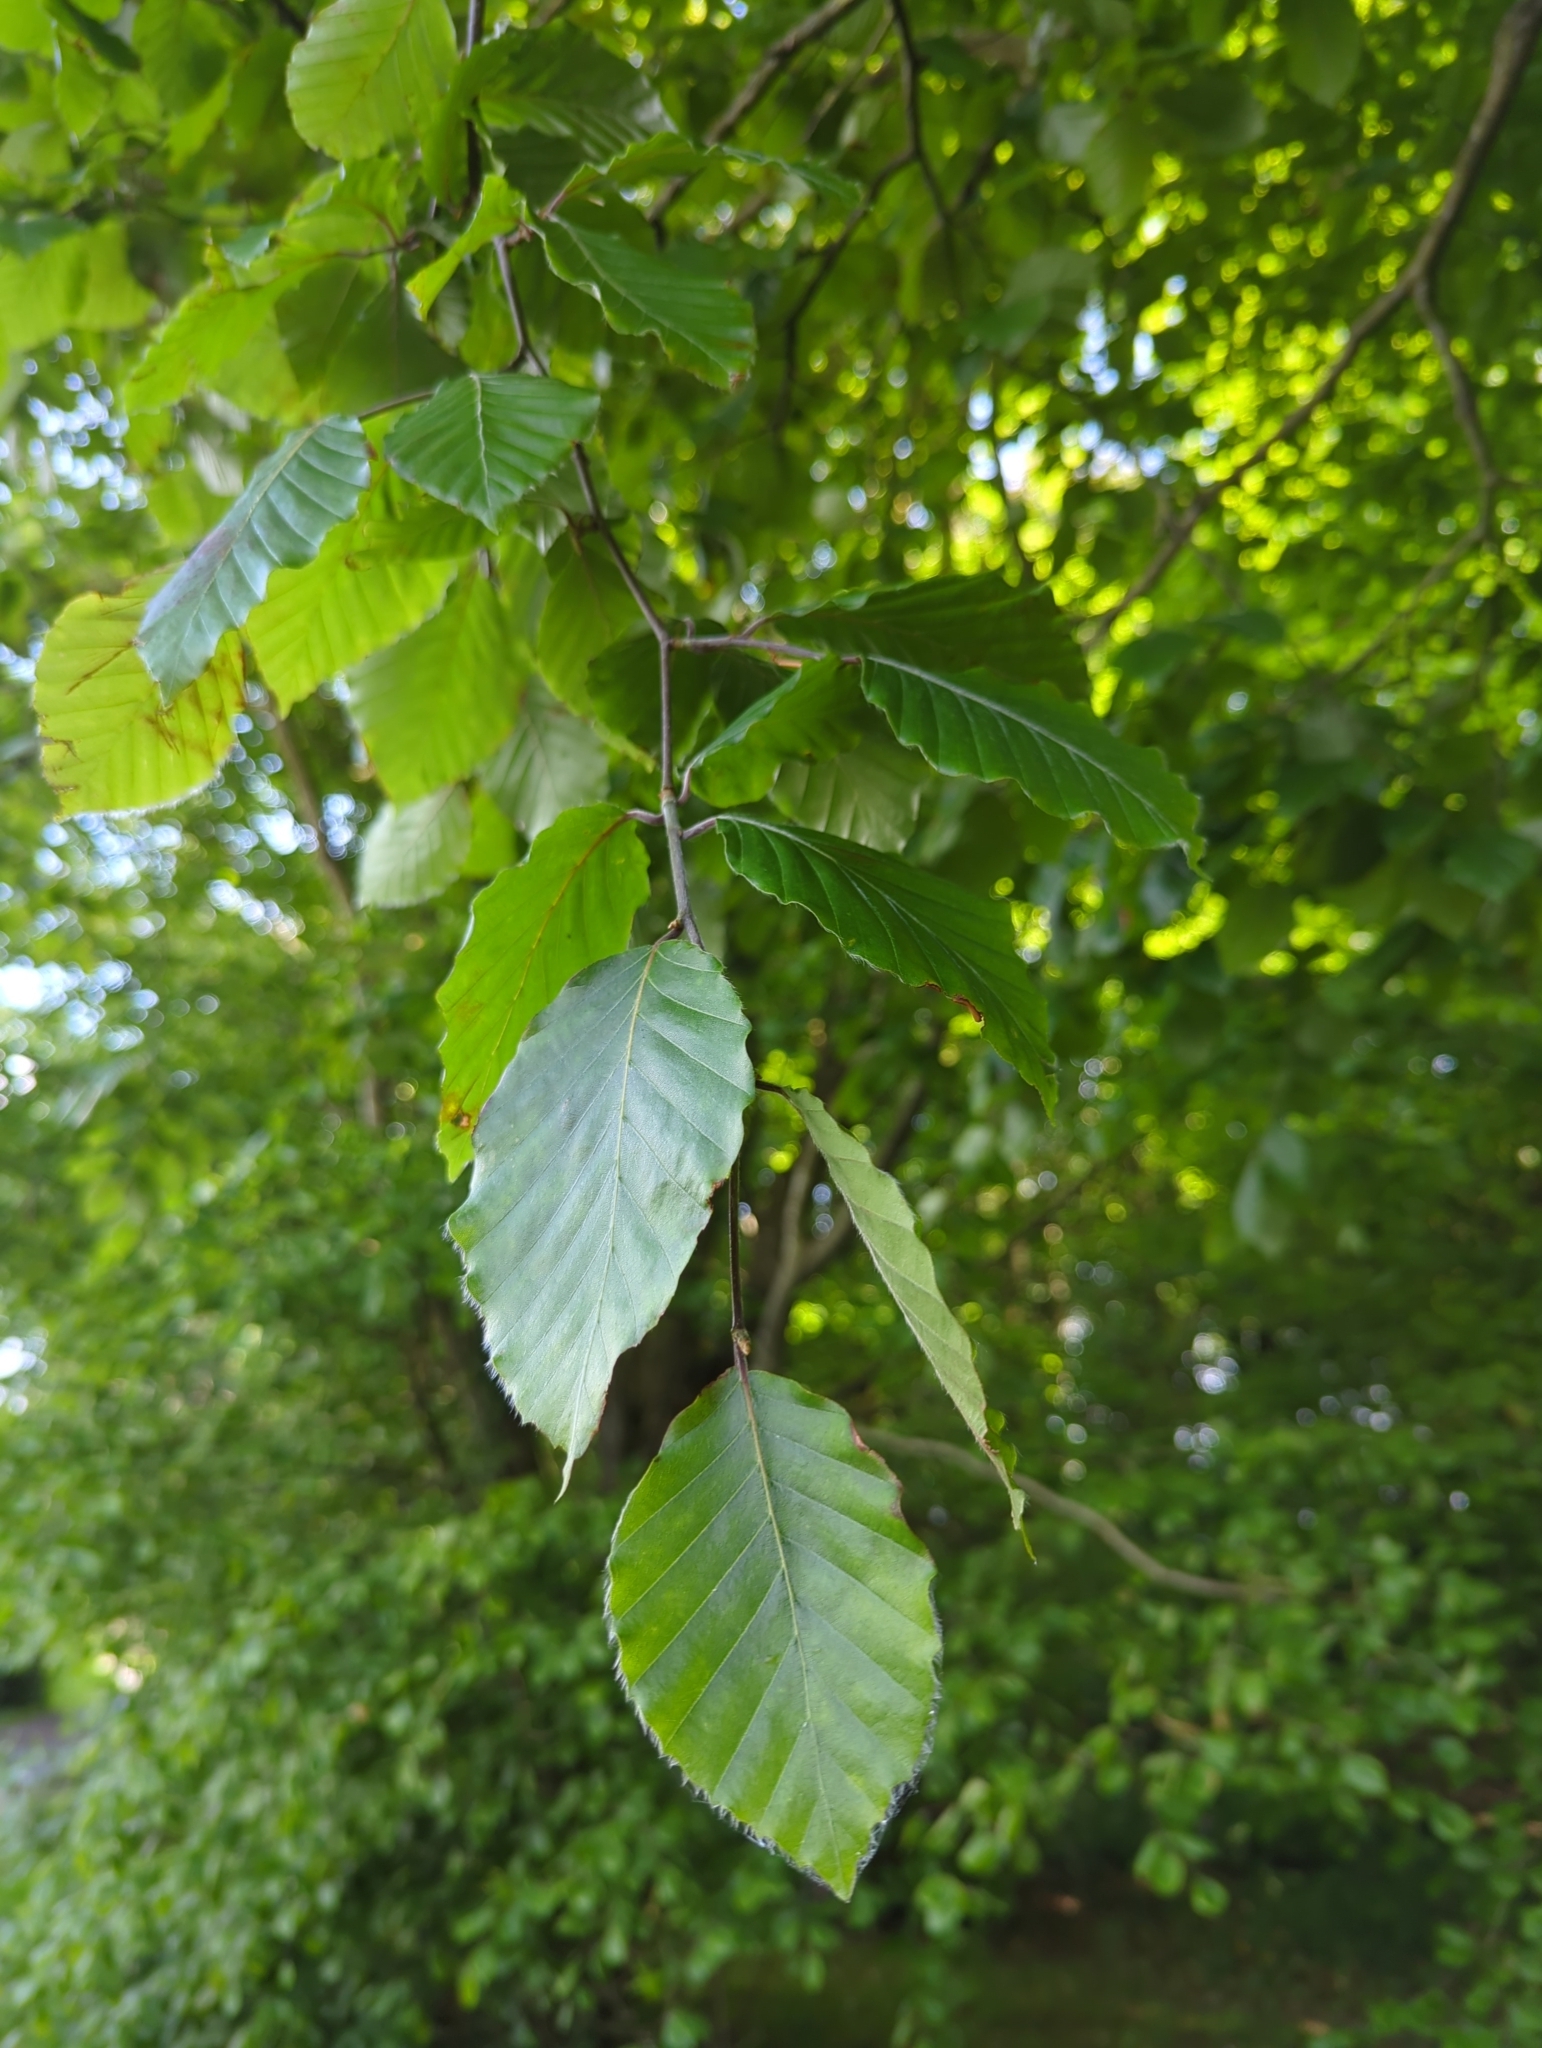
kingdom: Plantae
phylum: Tracheophyta
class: Magnoliopsida
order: Fagales
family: Fagaceae
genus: Fagus
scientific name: Fagus sylvatica
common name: Beech
